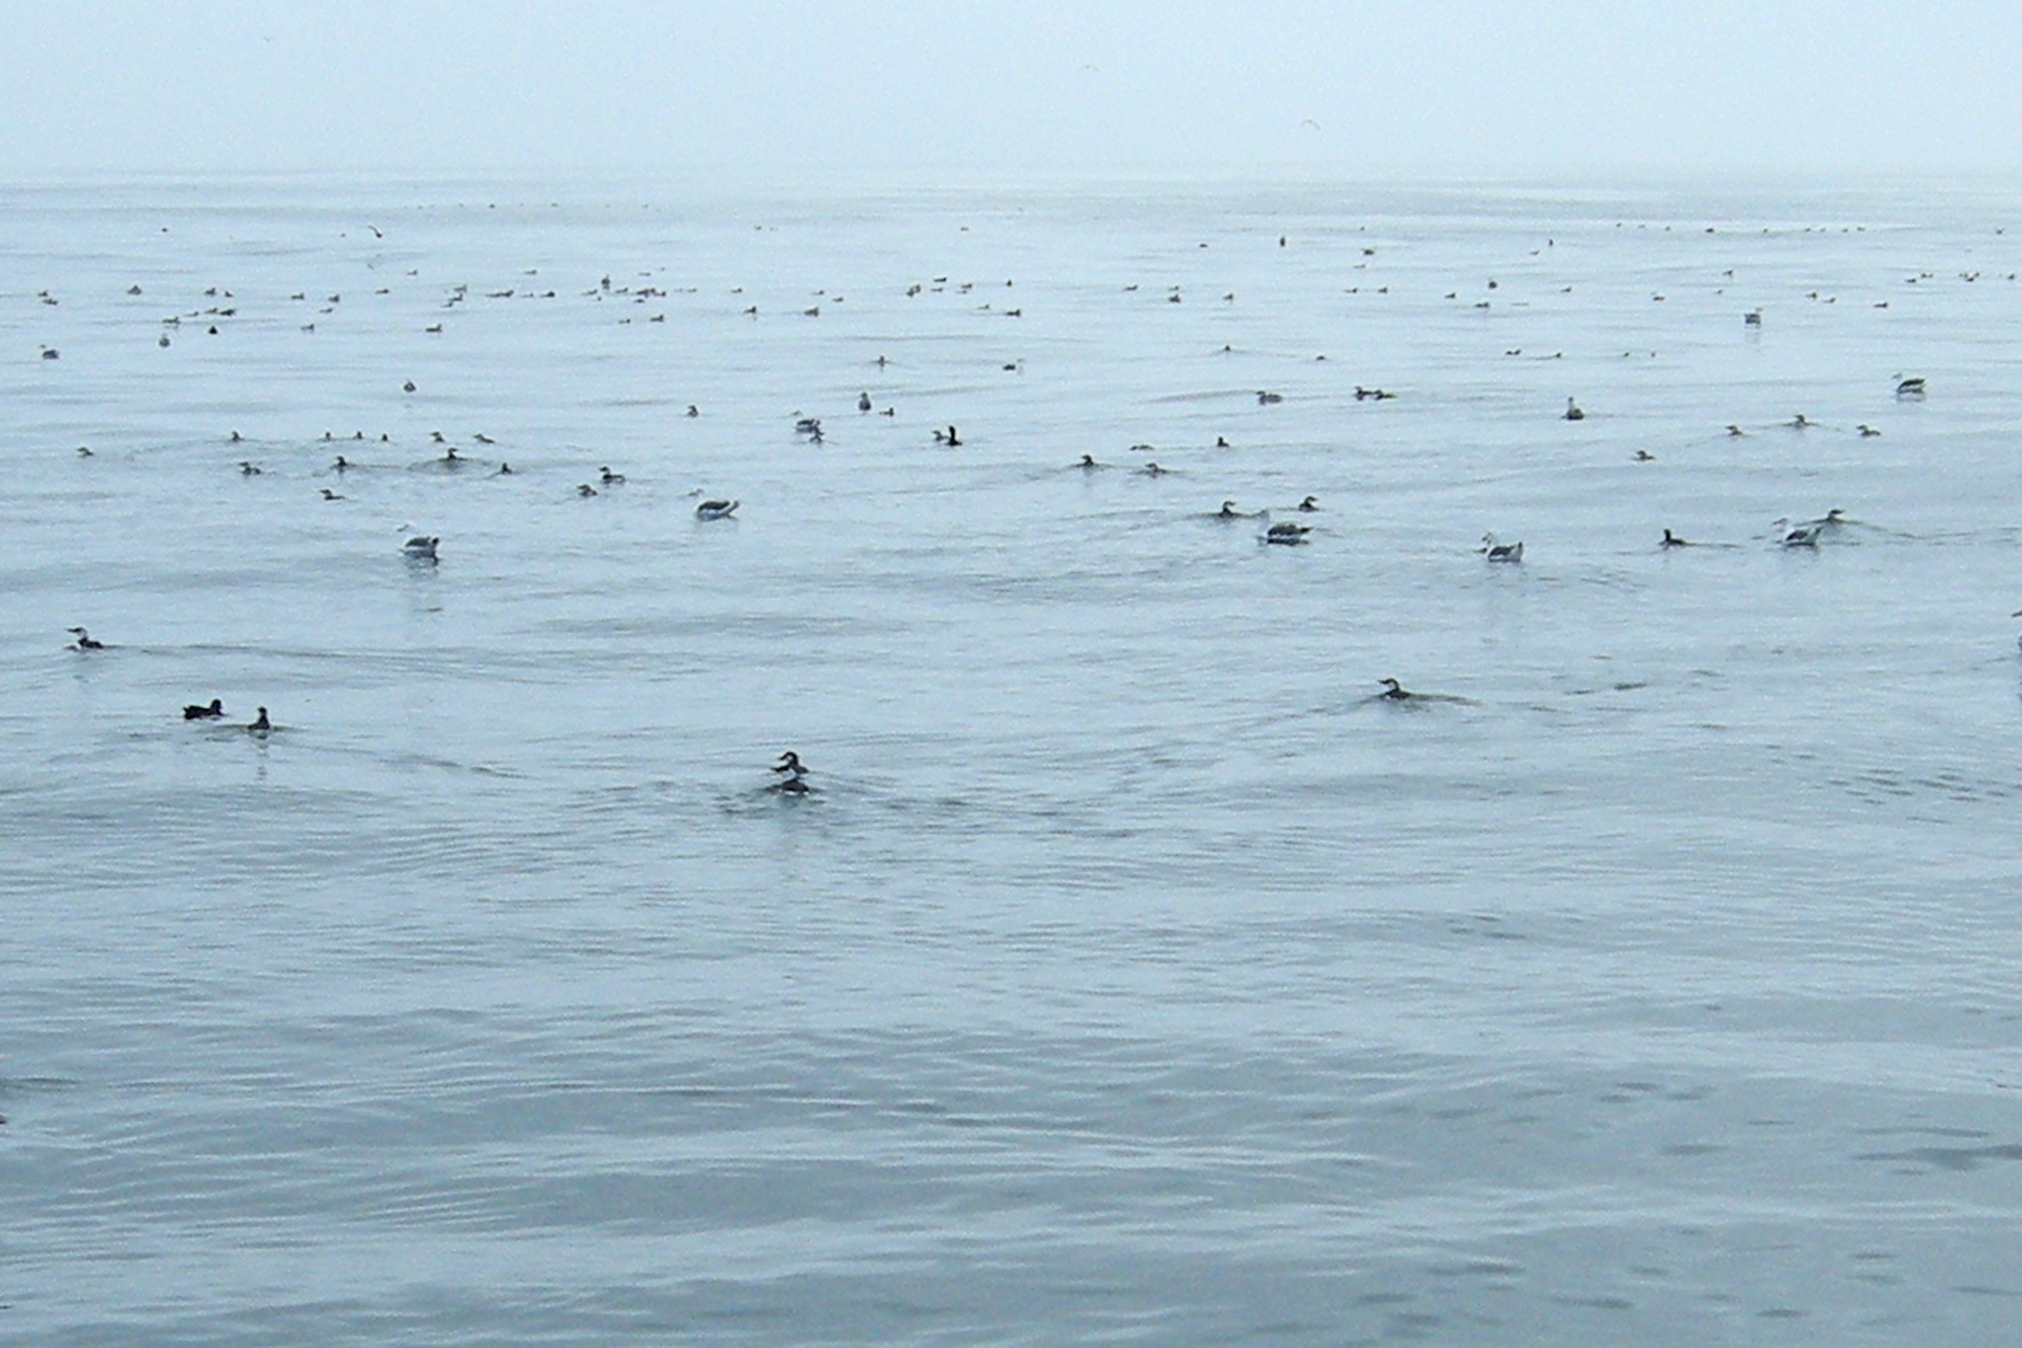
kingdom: Animalia
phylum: Chordata
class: Aves
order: Charadriiformes
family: Alcidae
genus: Uria
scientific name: Uria aalge
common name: Common murre
